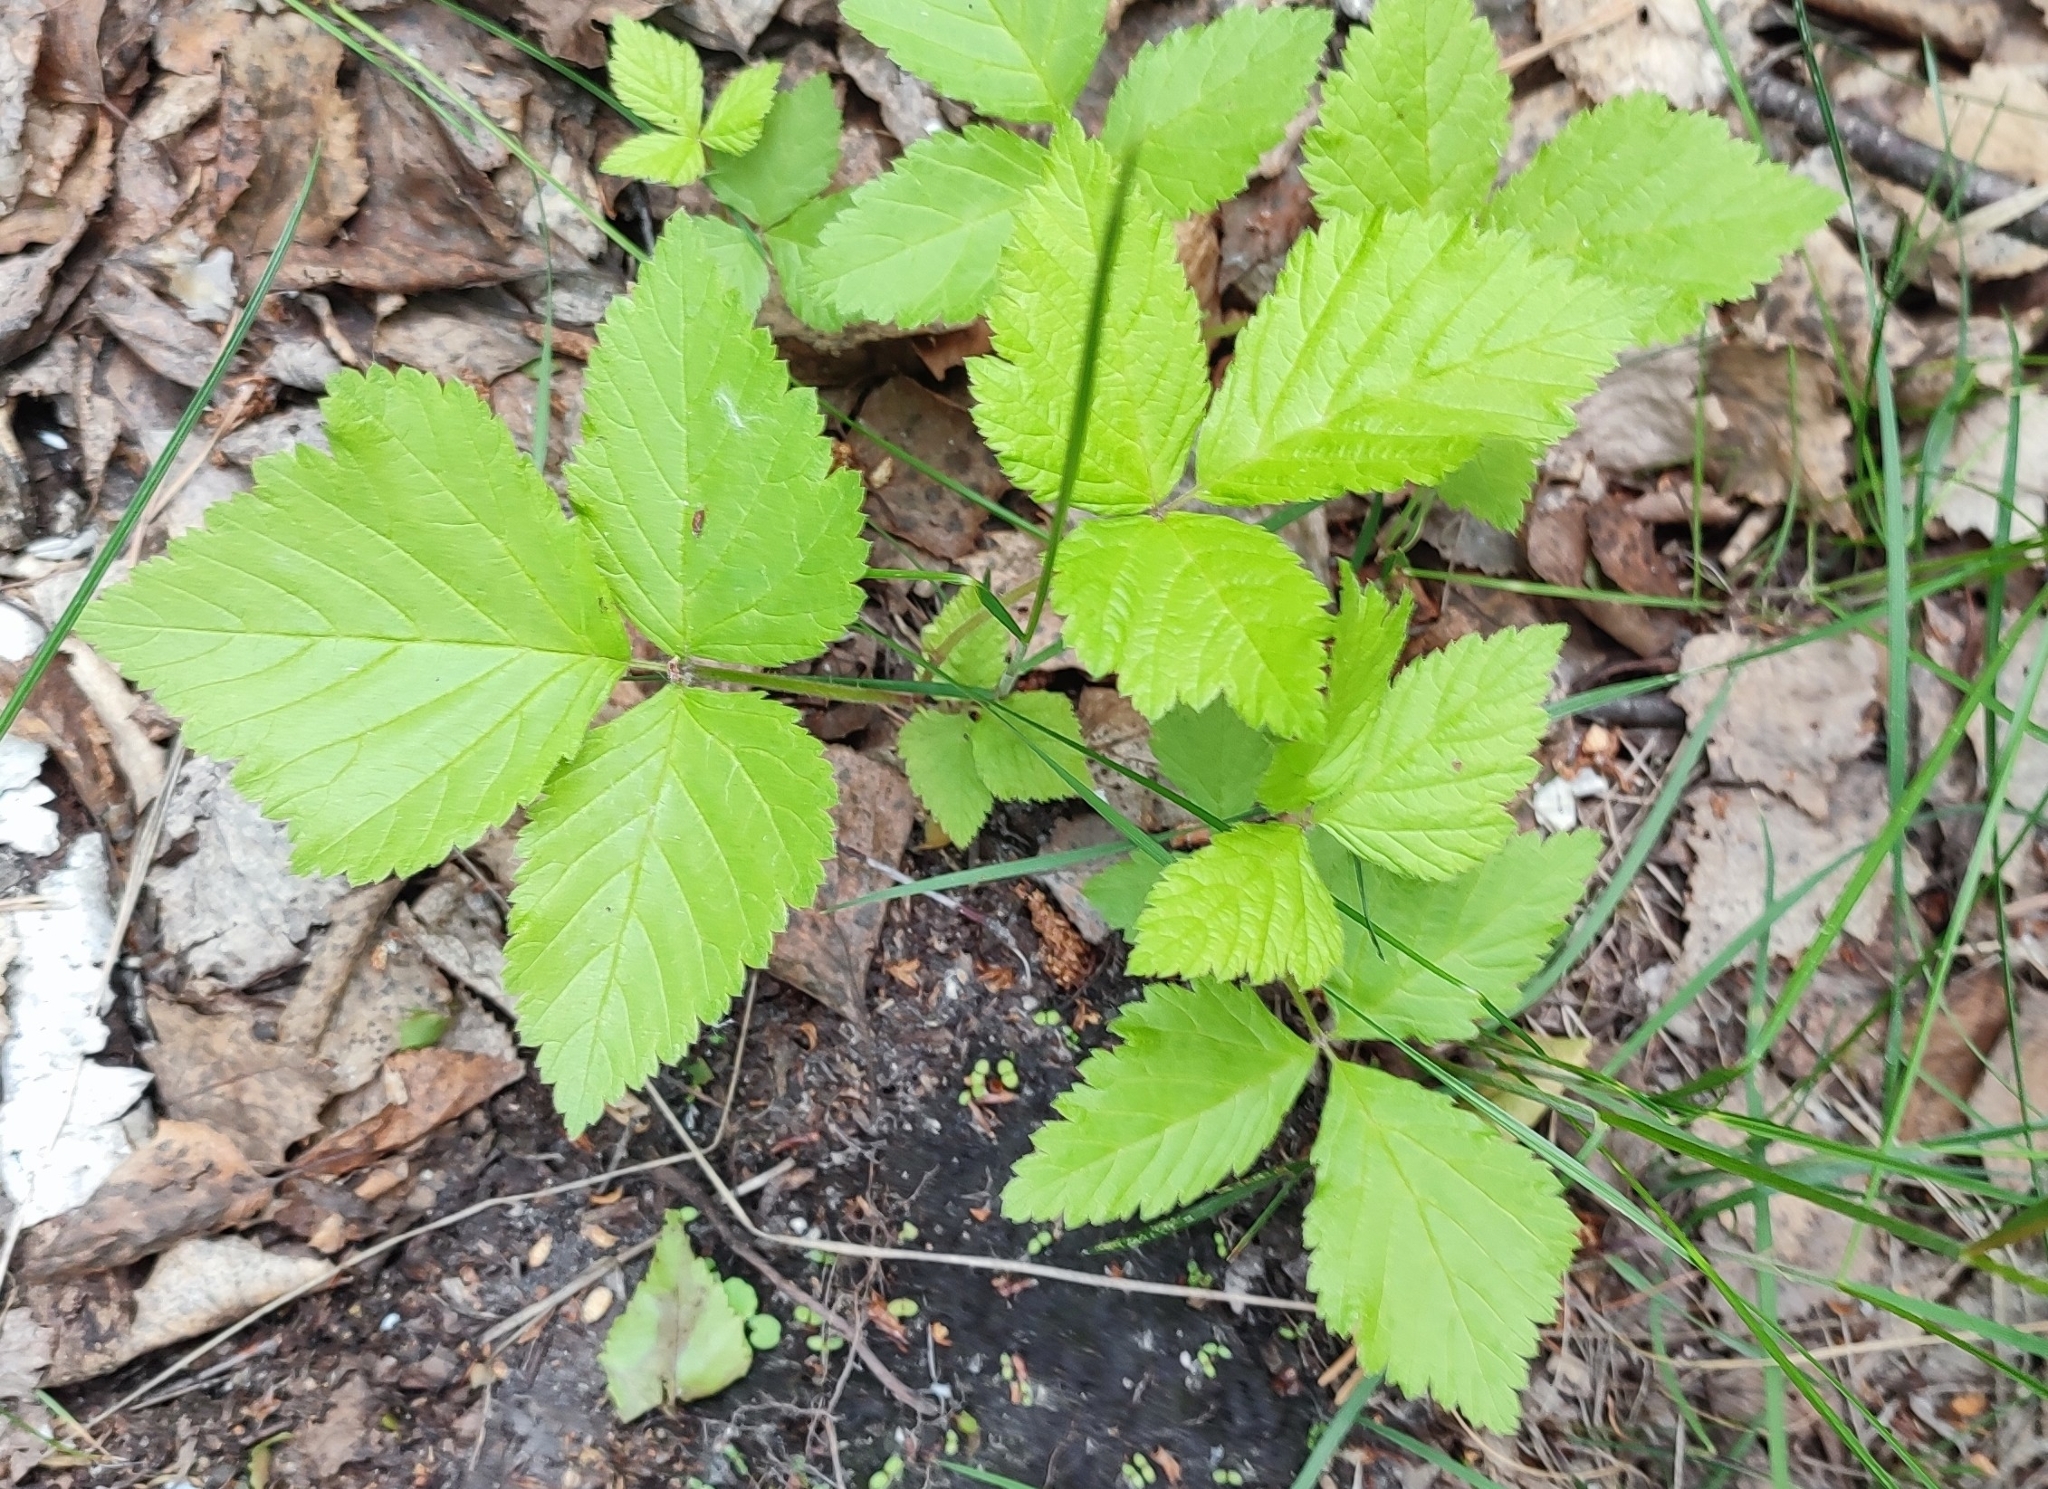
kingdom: Plantae
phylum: Tracheophyta
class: Magnoliopsida
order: Rosales
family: Rosaceae
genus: Rubus
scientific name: Rubus saxatilis
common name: Stone bramble
